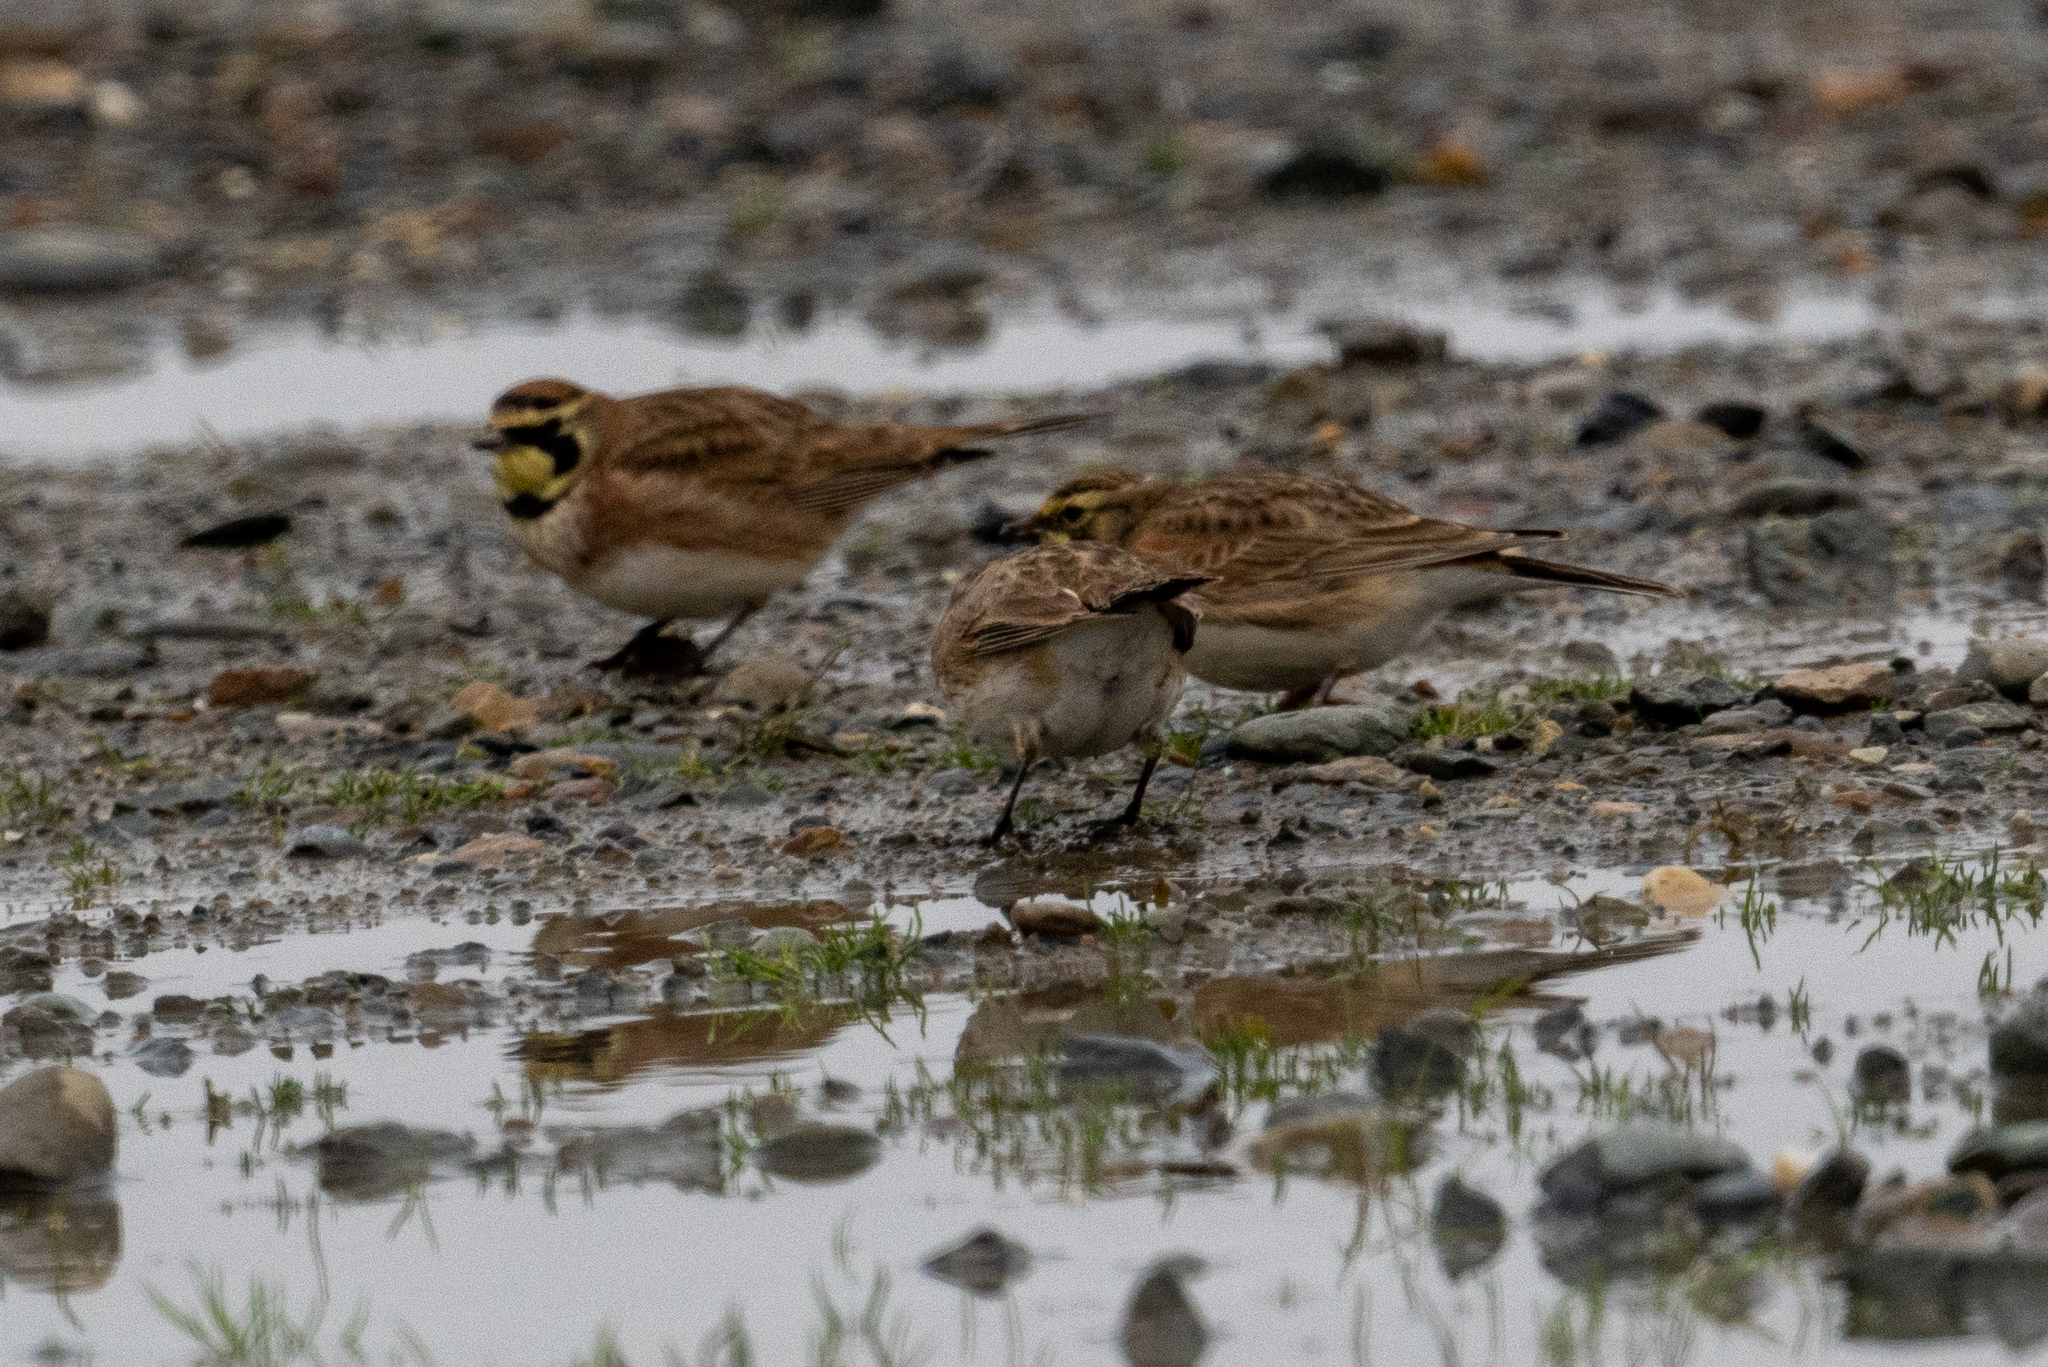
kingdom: Animalia
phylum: Chordata
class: Aves
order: Passeriformes
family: Alaudidae
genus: Eremophila
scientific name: Eremophila alpestris
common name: Horned lark
